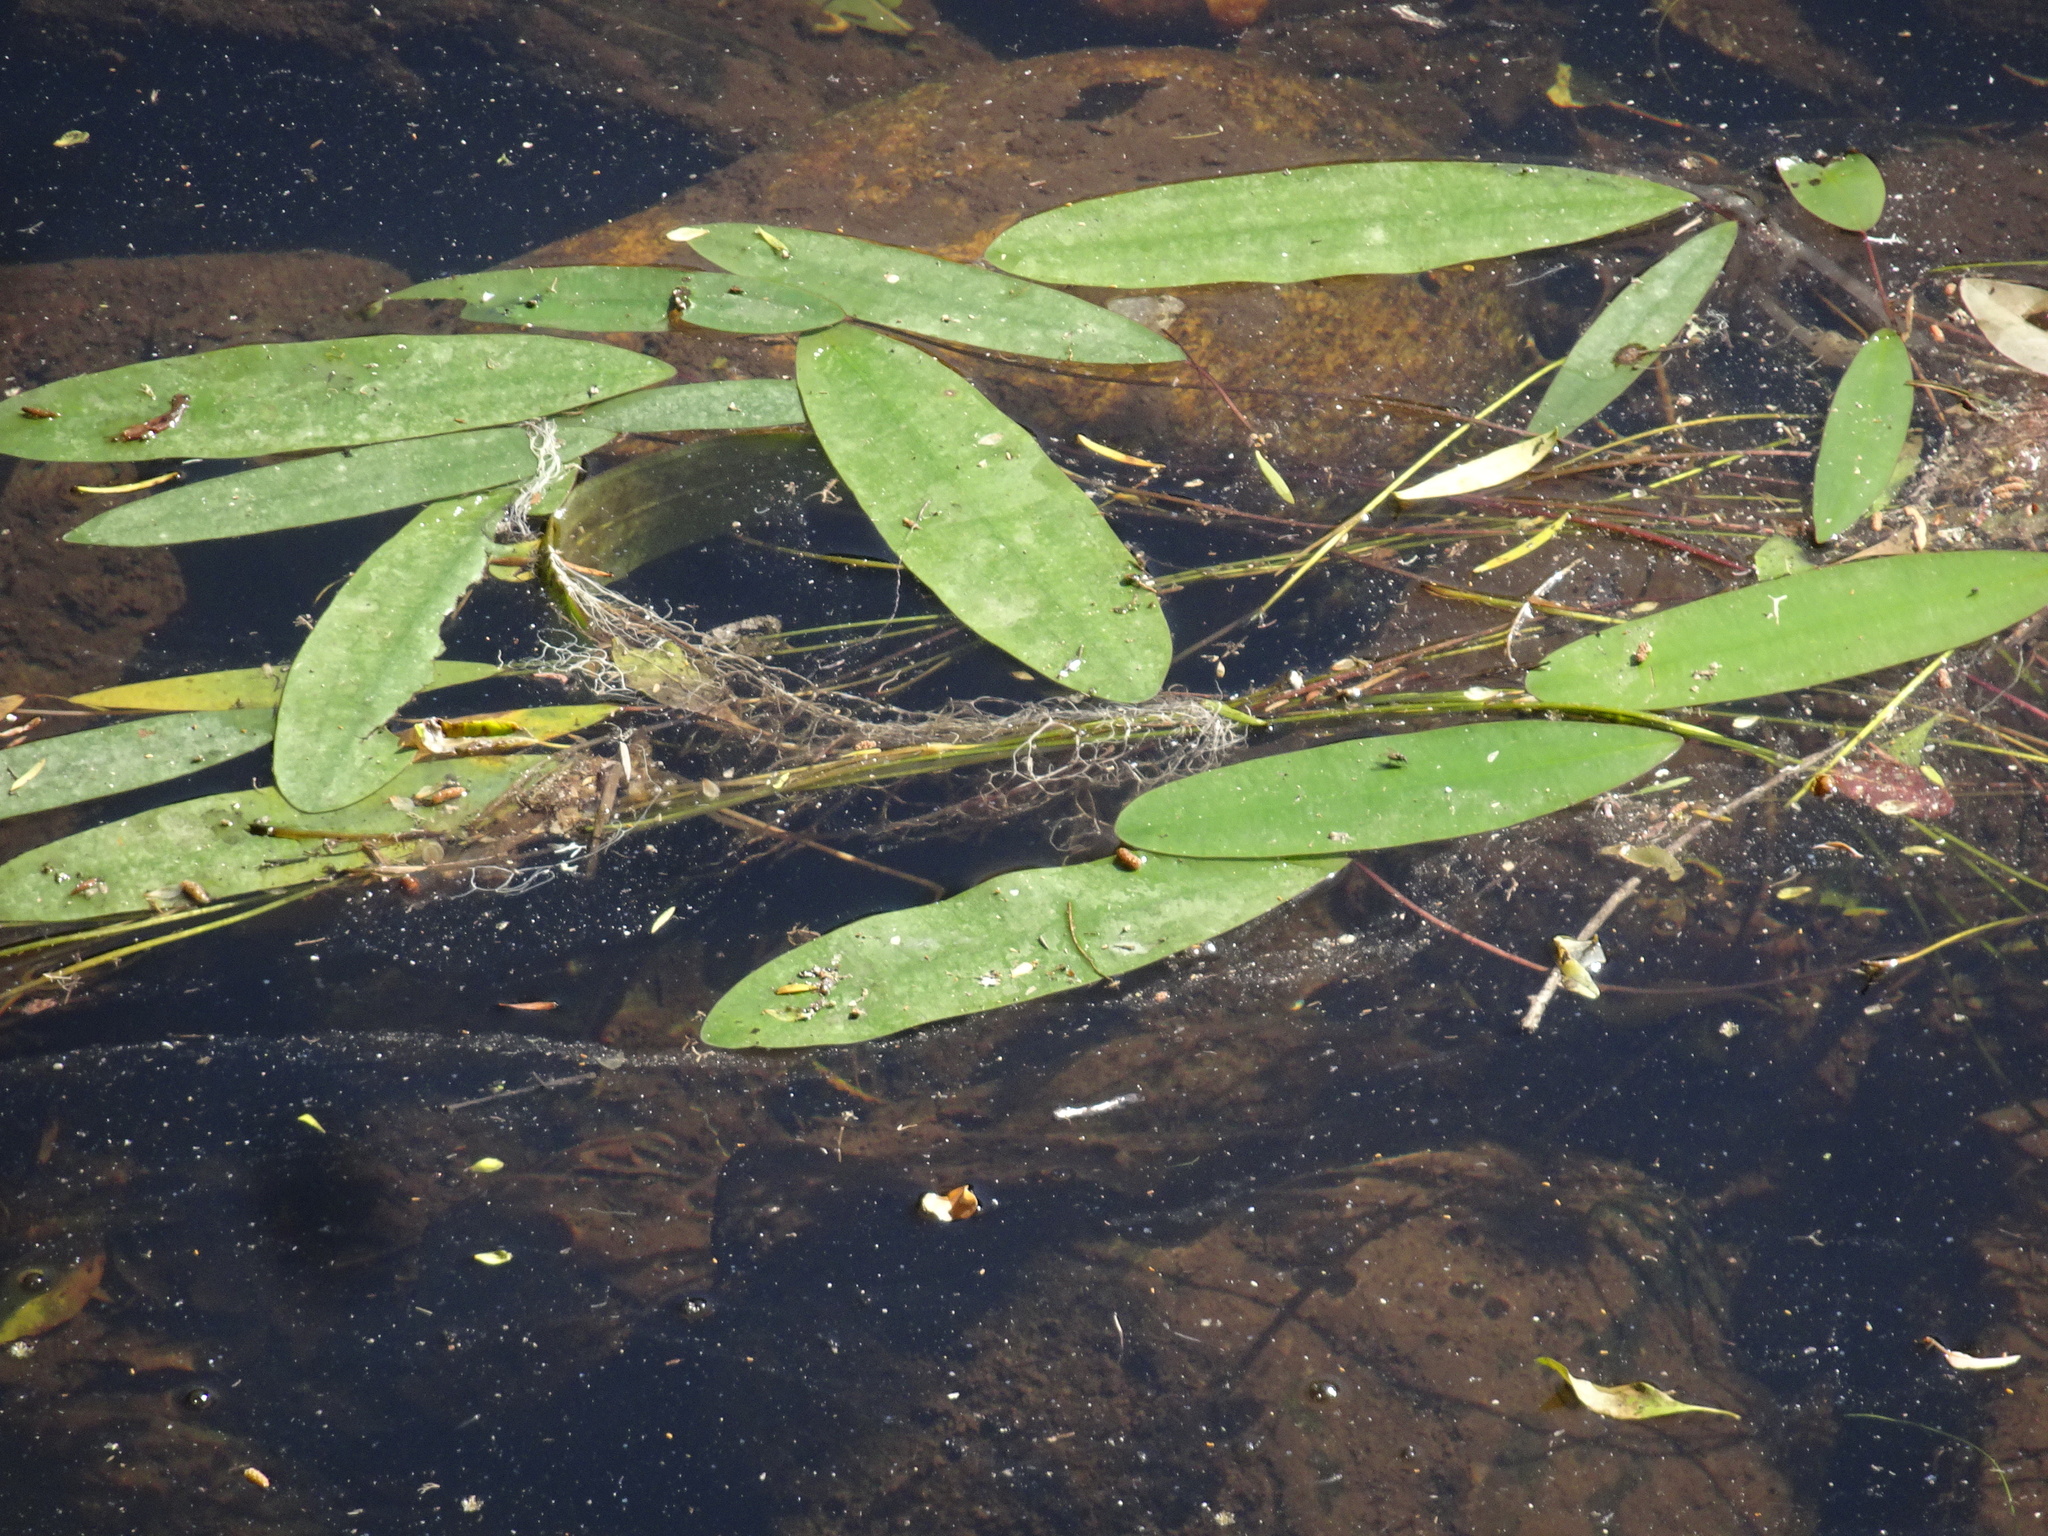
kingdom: Plantae
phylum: Tracheophyta
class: Liliopsida
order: Alismatales
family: Aponogetonaceae
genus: Aponogeton
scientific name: Aponogeton distachyos
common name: Cape-pondweed
